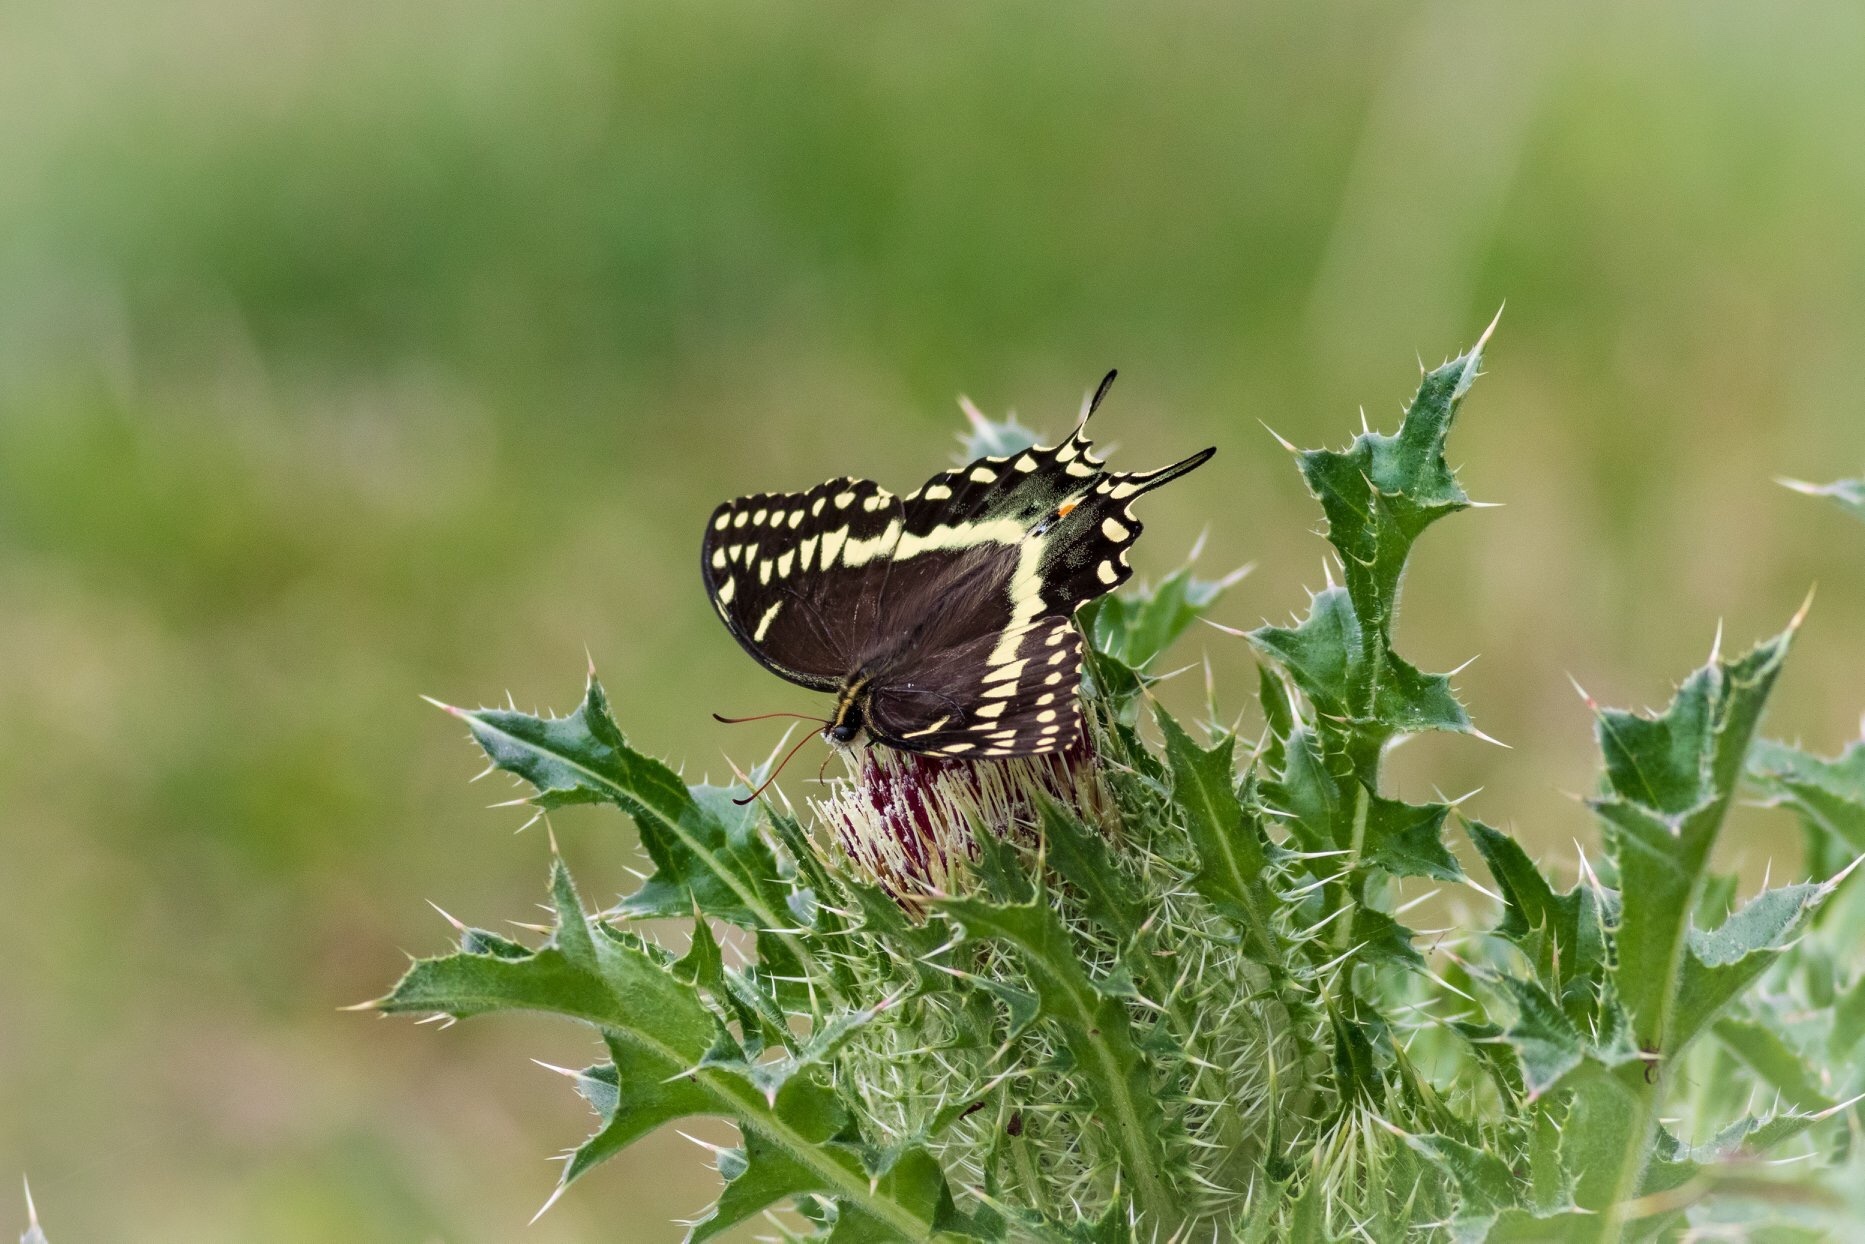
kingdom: Animalia
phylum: Arthropoda
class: Insecta
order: Lepidoptera
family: Papilionidae
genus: Papilio
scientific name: Papilio palamedes
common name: Palamedes swallowtail
